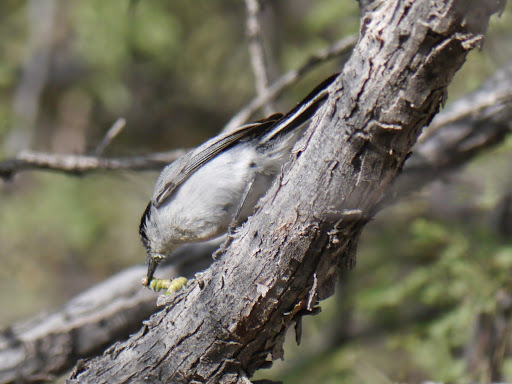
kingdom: Animalia
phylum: Chordata
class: Aves
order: Passeriformes
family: Polioptilidae
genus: Polioptila
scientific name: Polioptila melanura
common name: Black-tailed gnatcatcher
